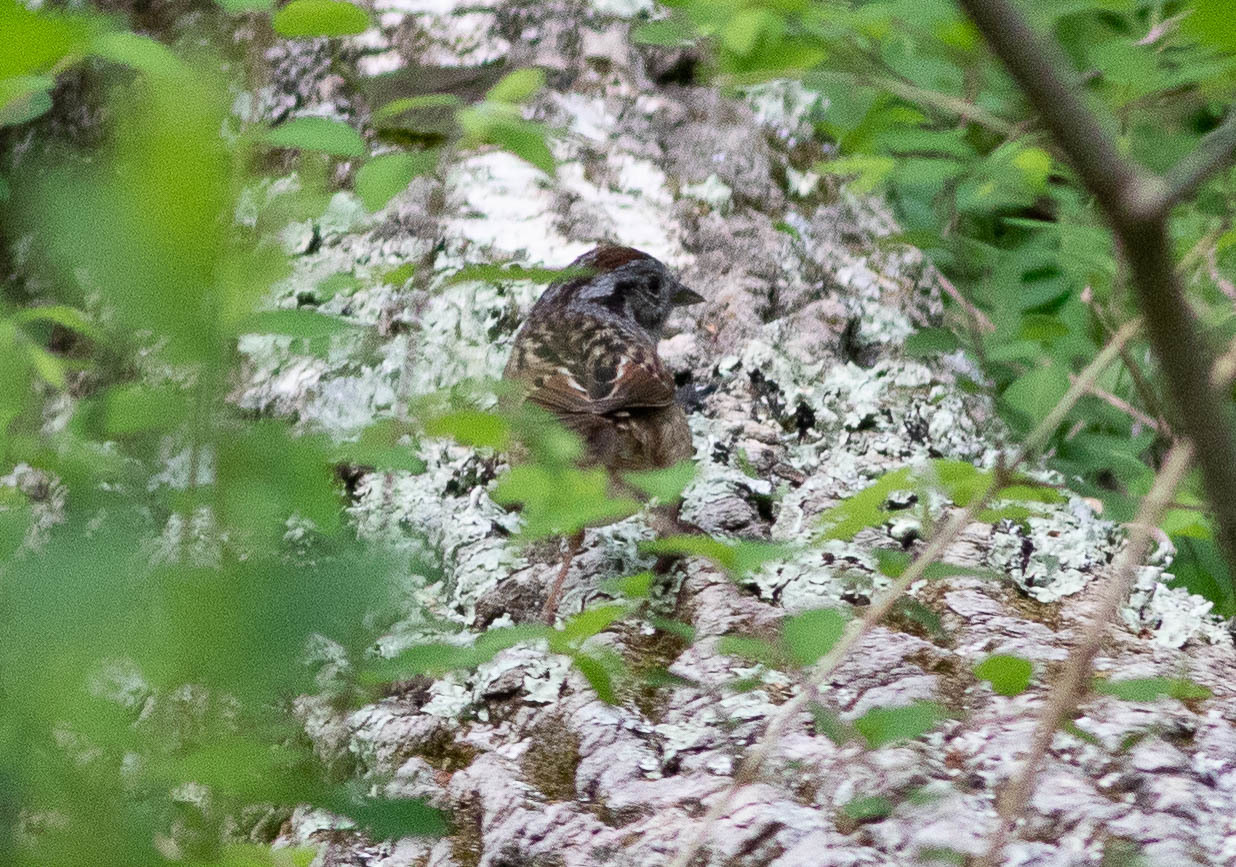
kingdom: Animalia
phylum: Chordata
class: Aves
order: Passeriformes
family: Passerellidae
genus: Melospiza
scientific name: Melospiza georgiana
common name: Swamp sparrow
